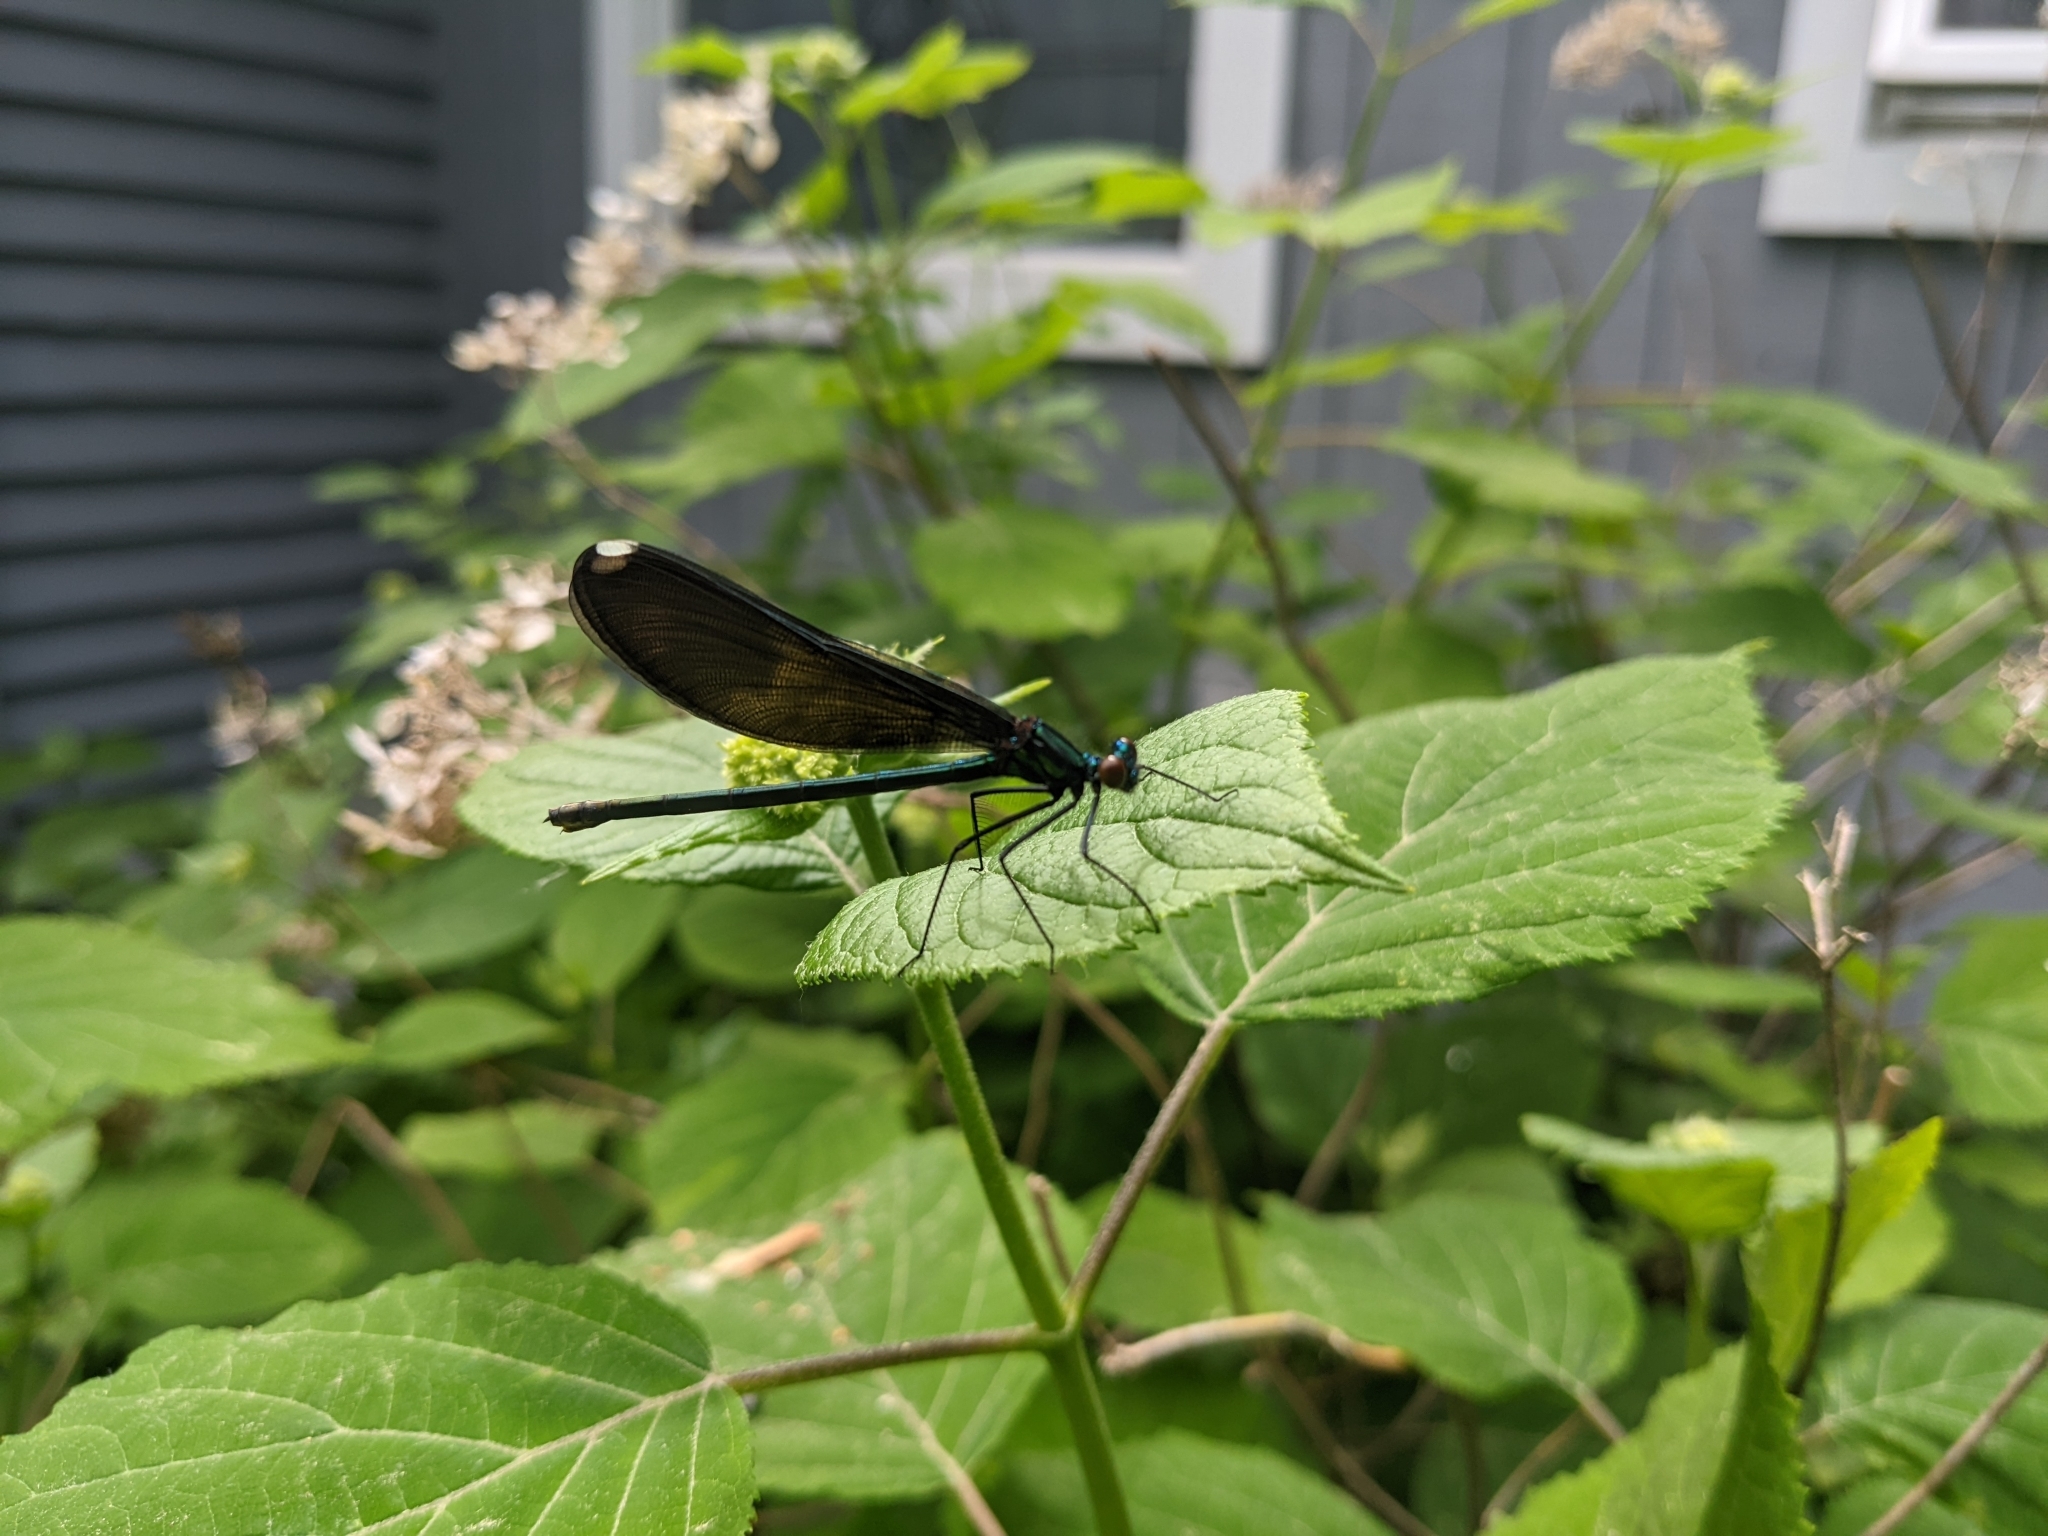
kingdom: Animalia
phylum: Arthropoda
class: Insecta
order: Odonata
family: Calopterygidae
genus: Calopteryx
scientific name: Calopteryx maculata
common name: Ebony jewelwing
